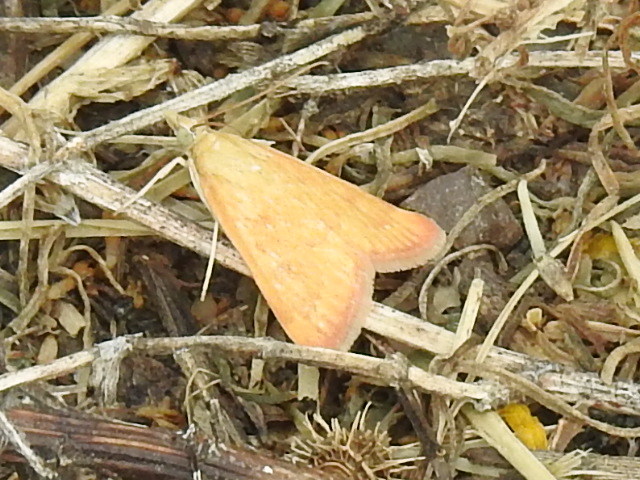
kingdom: Animalia
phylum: Arthropoda
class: Insecta
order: Lepidoptera
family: Crambidae
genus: Achyra
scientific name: Achyra rantalis
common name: Garden webworm
